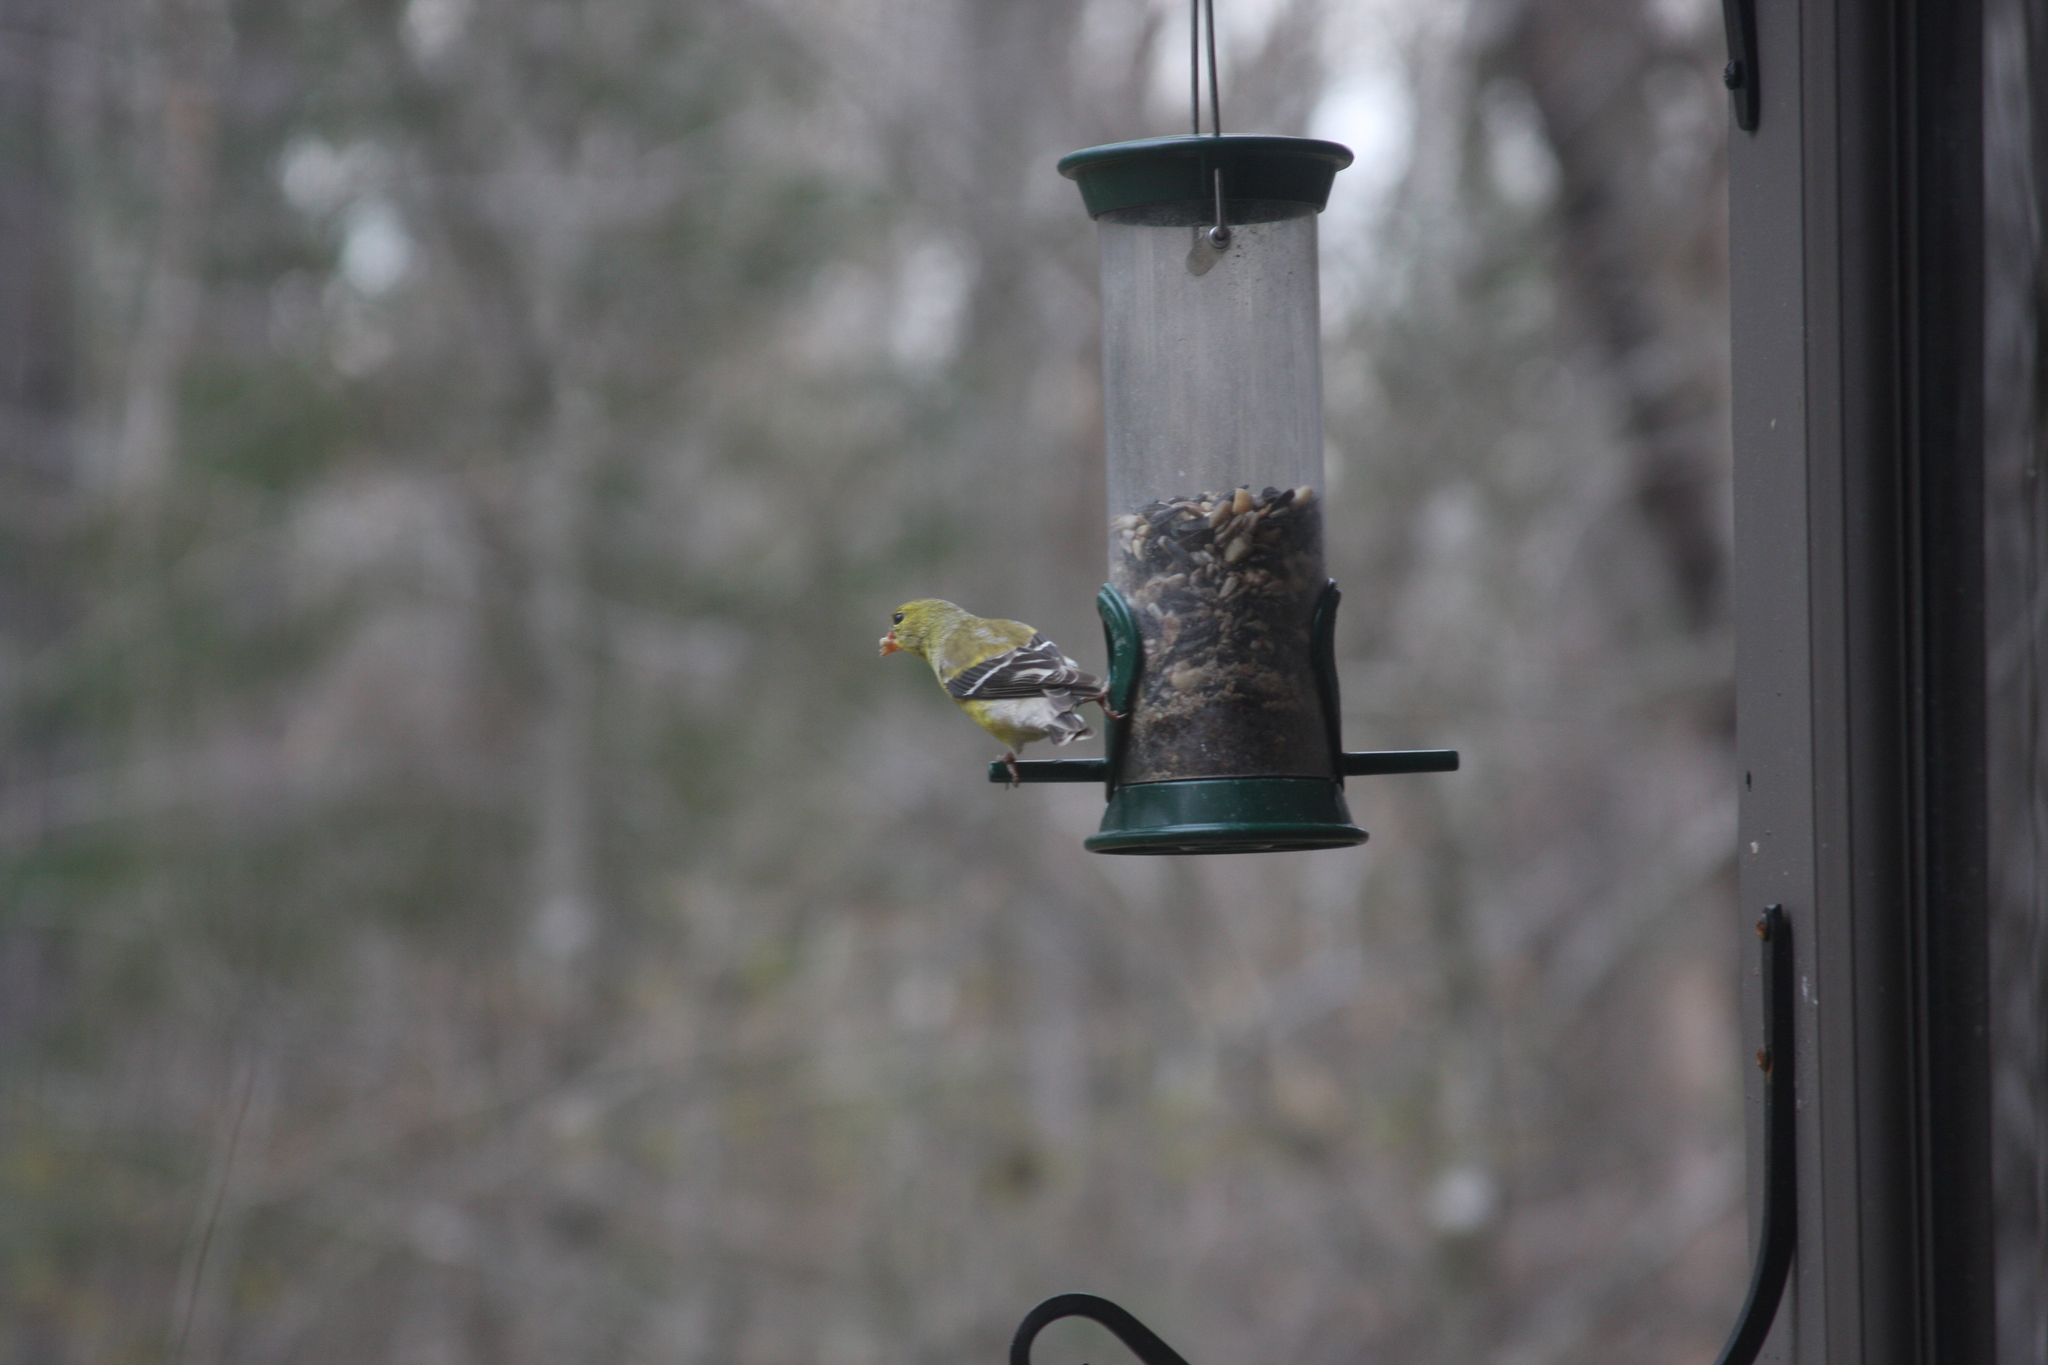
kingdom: Animalia
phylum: Chordata
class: Aves
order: Passeriformes
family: Fringillidae
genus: Spinus
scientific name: Spinus tristis
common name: American goldfinch
